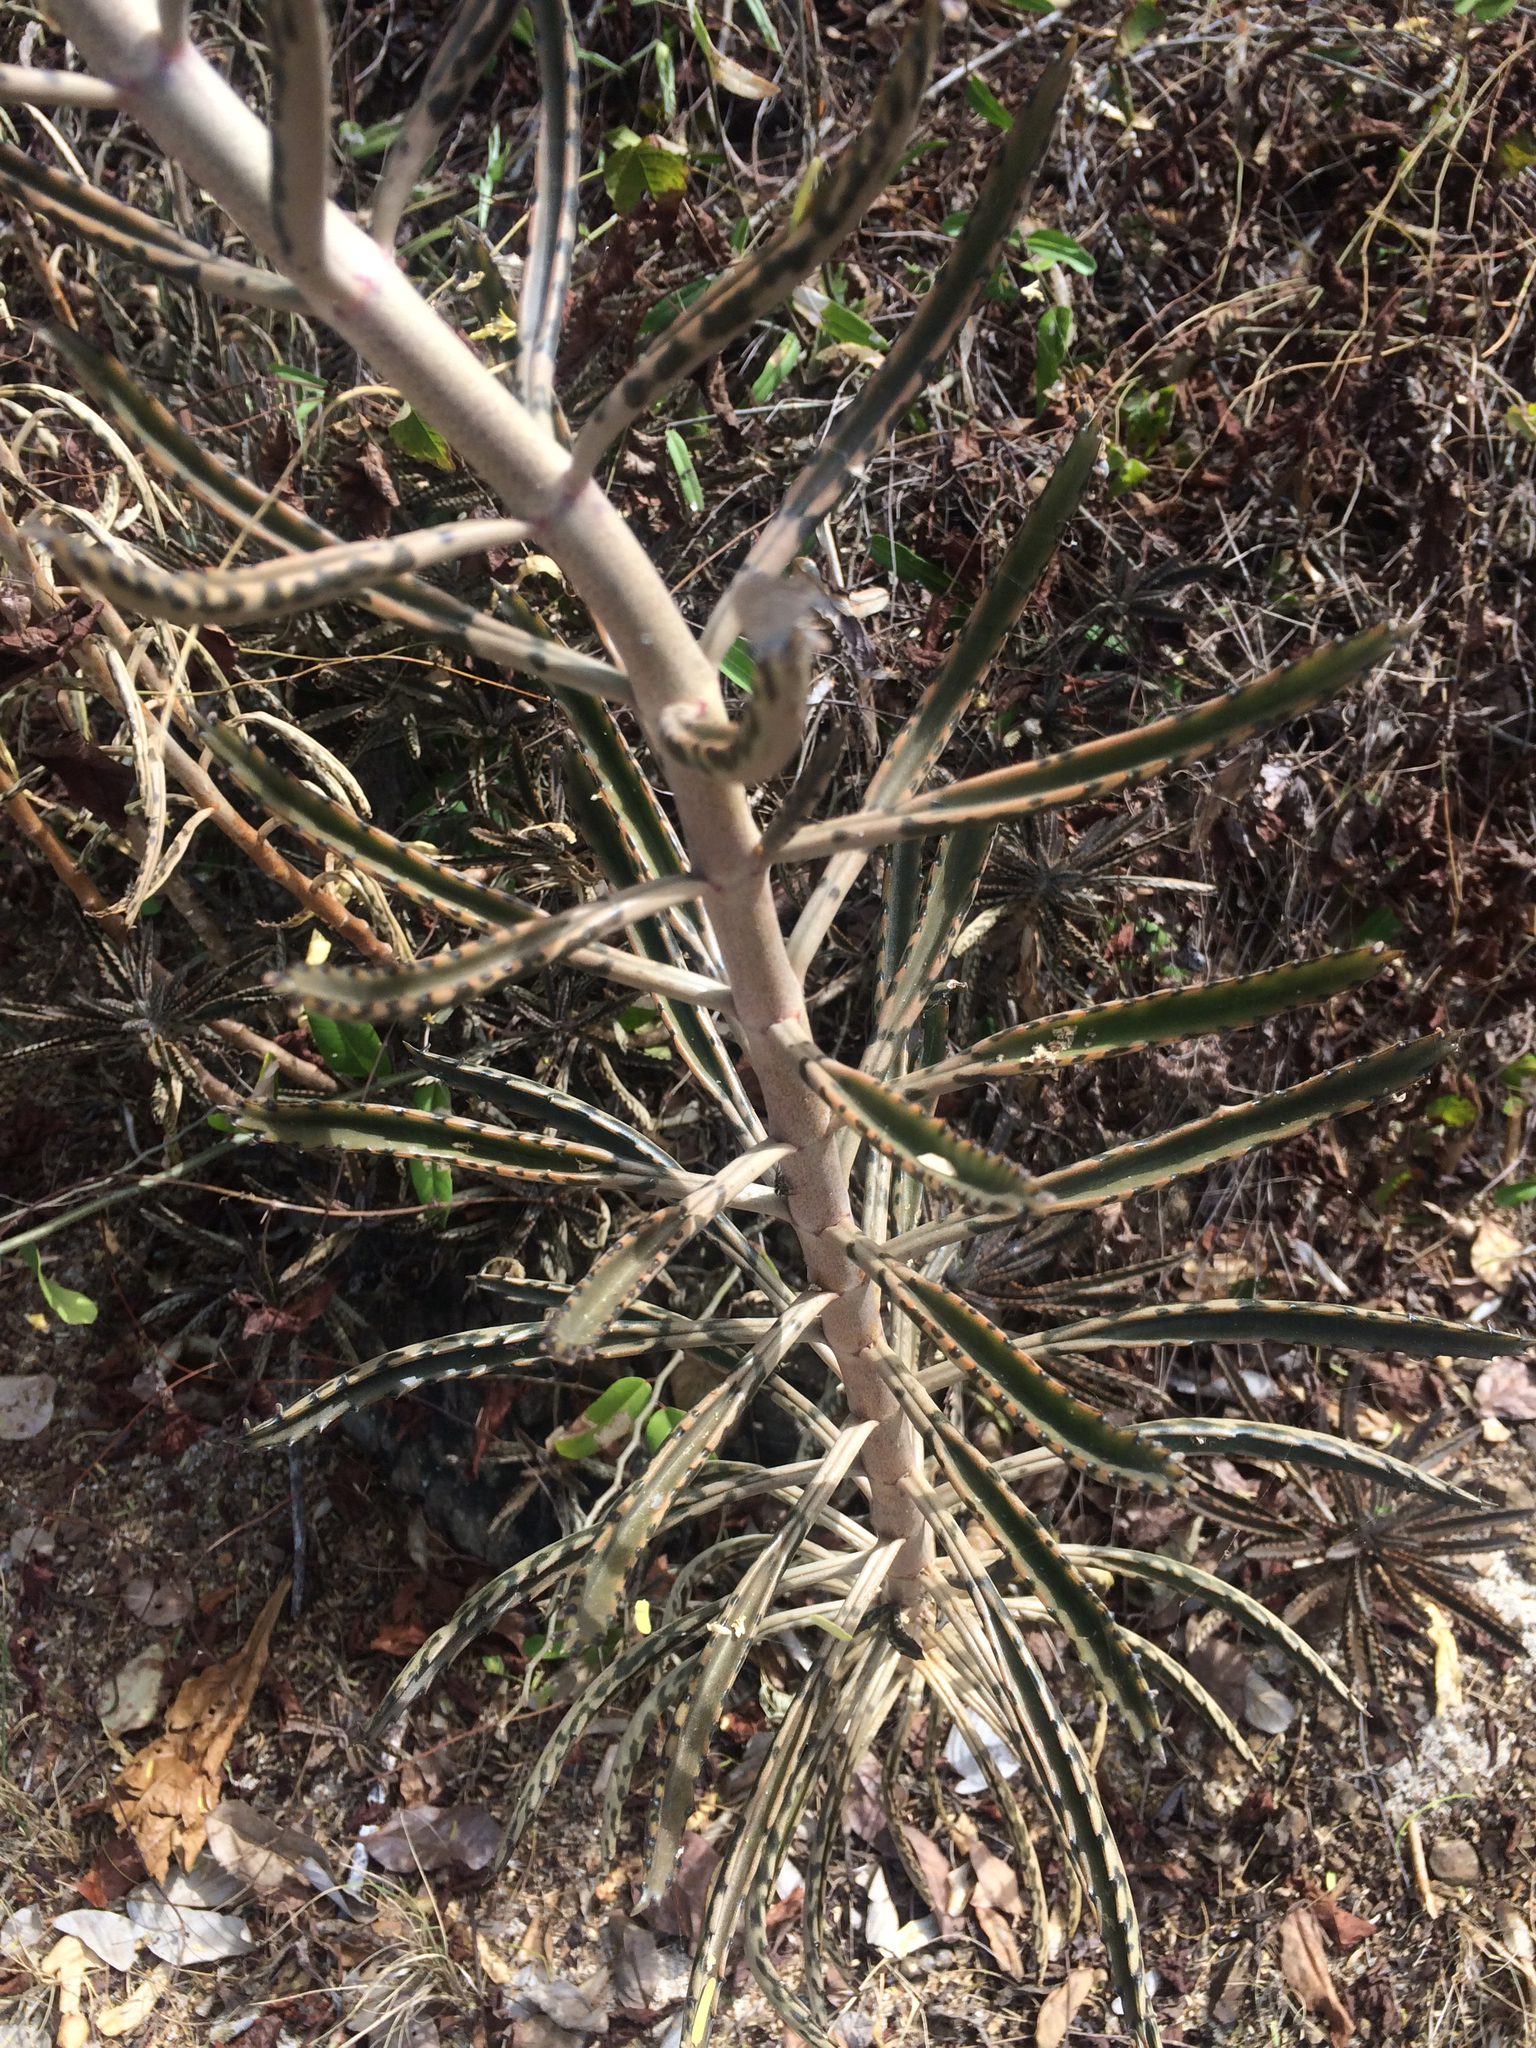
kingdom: Plantae
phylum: Tracheophyta
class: Magnoliopsida
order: Saxifragales
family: Crassulaceae
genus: Kalanchoe
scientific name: Kalanchoe houghtonii
